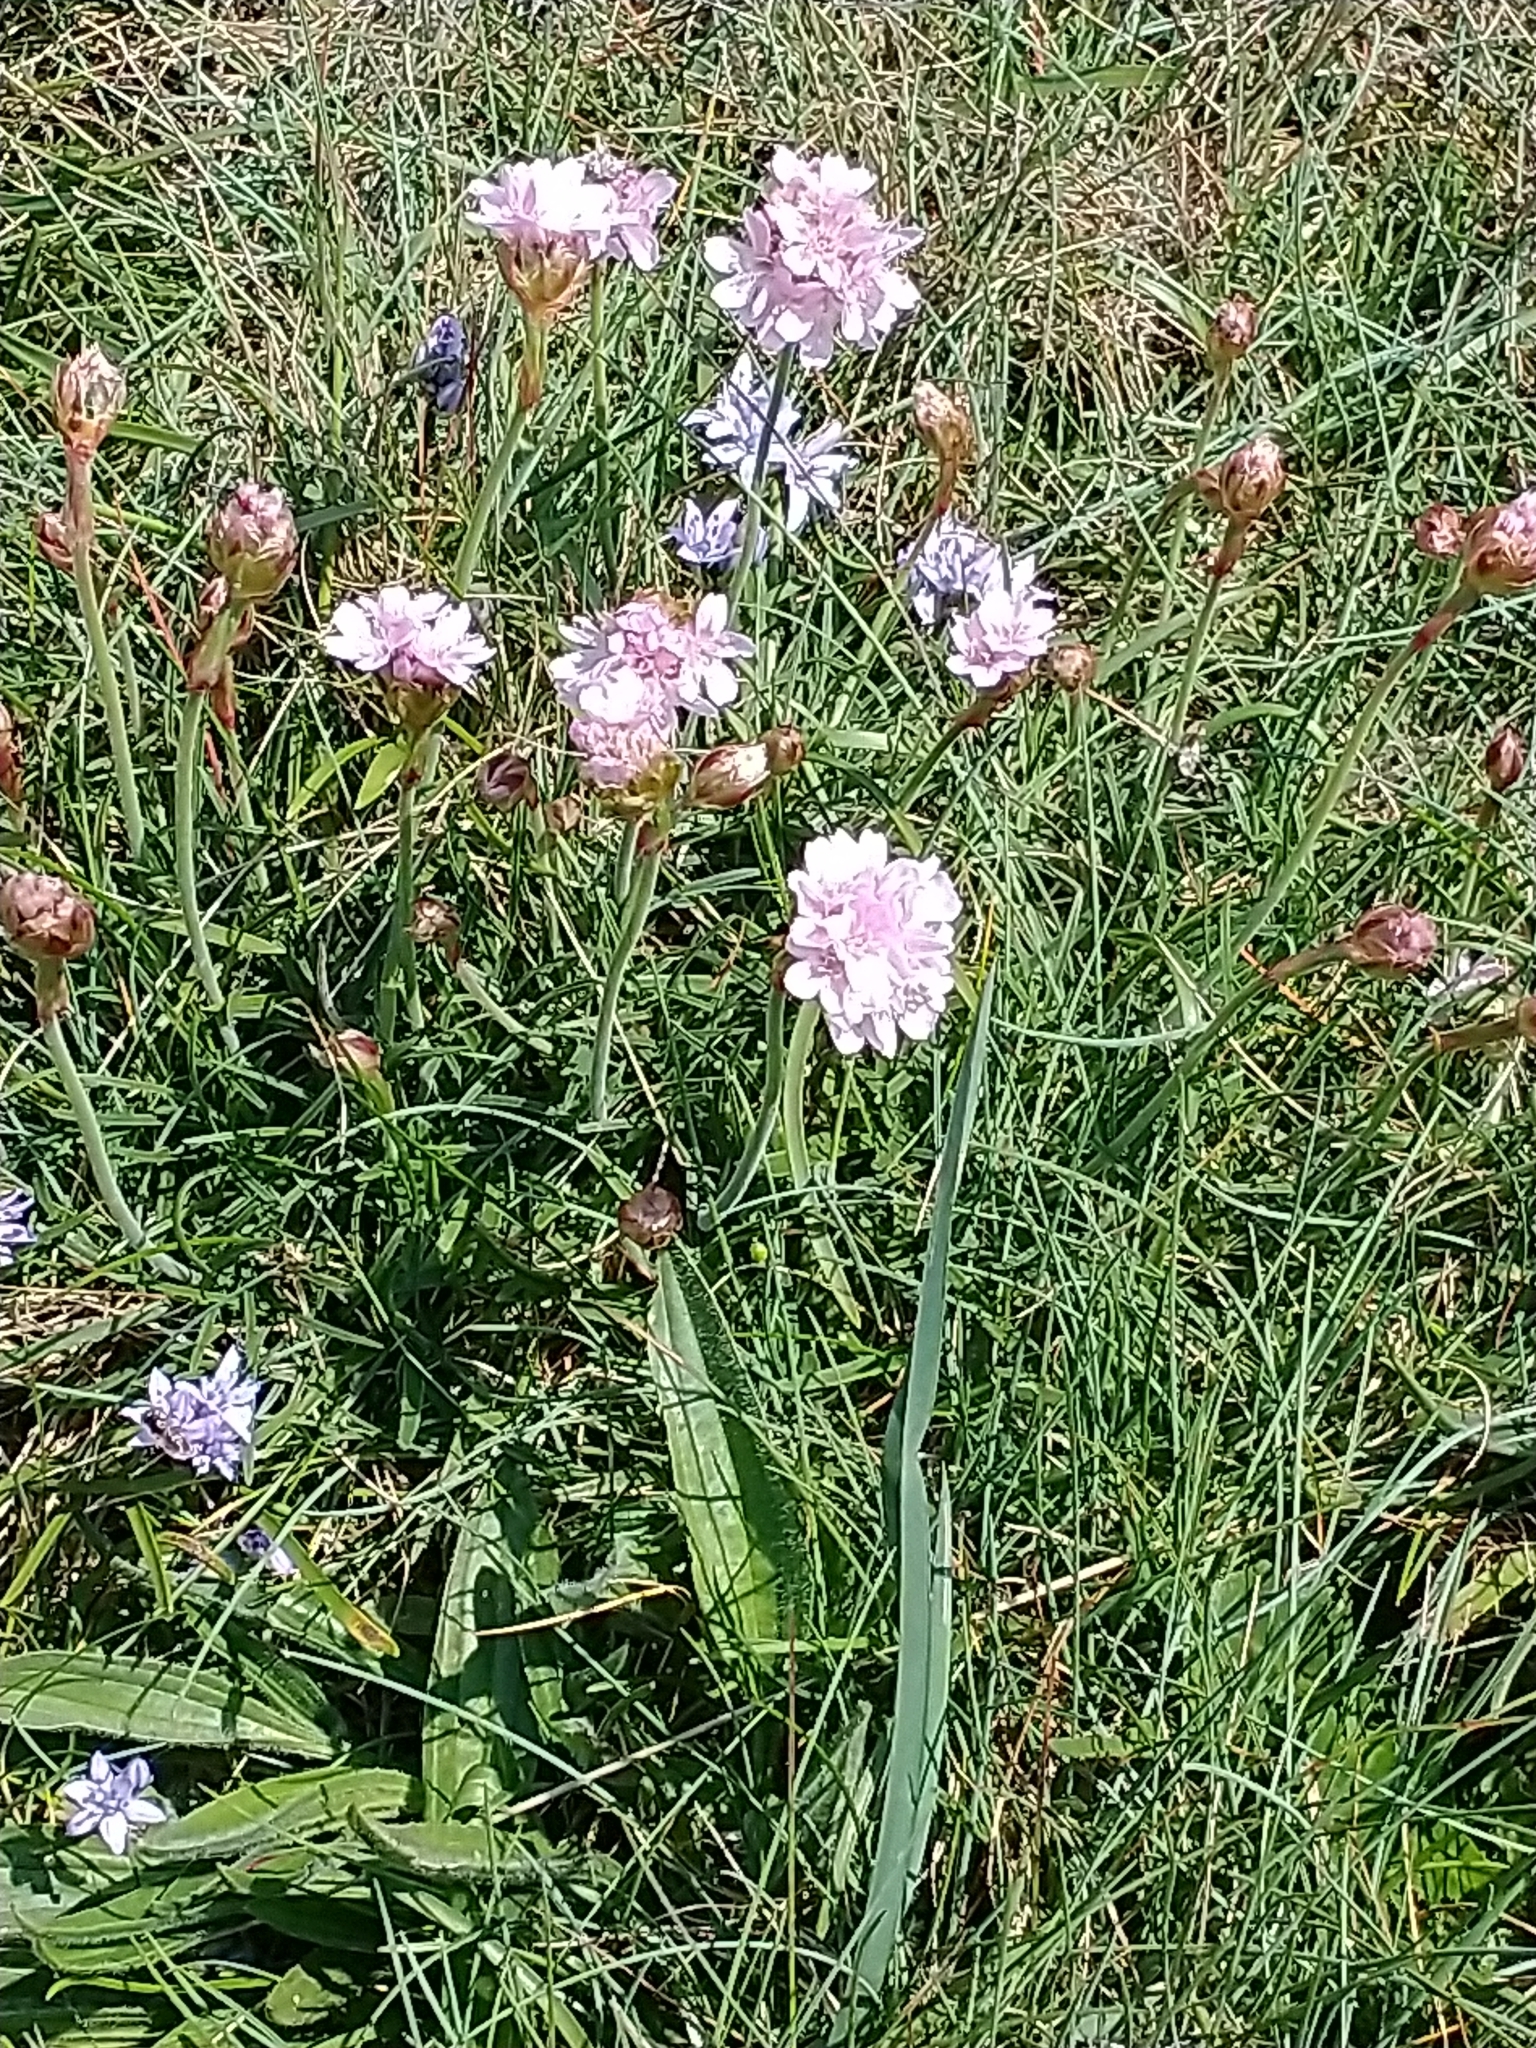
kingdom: Plantae
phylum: Tracheophyta
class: Magnoliopsida
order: Caryophyllales
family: Plumbaginaceae
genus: Armeria
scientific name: Armeria maritima
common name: Thrift
